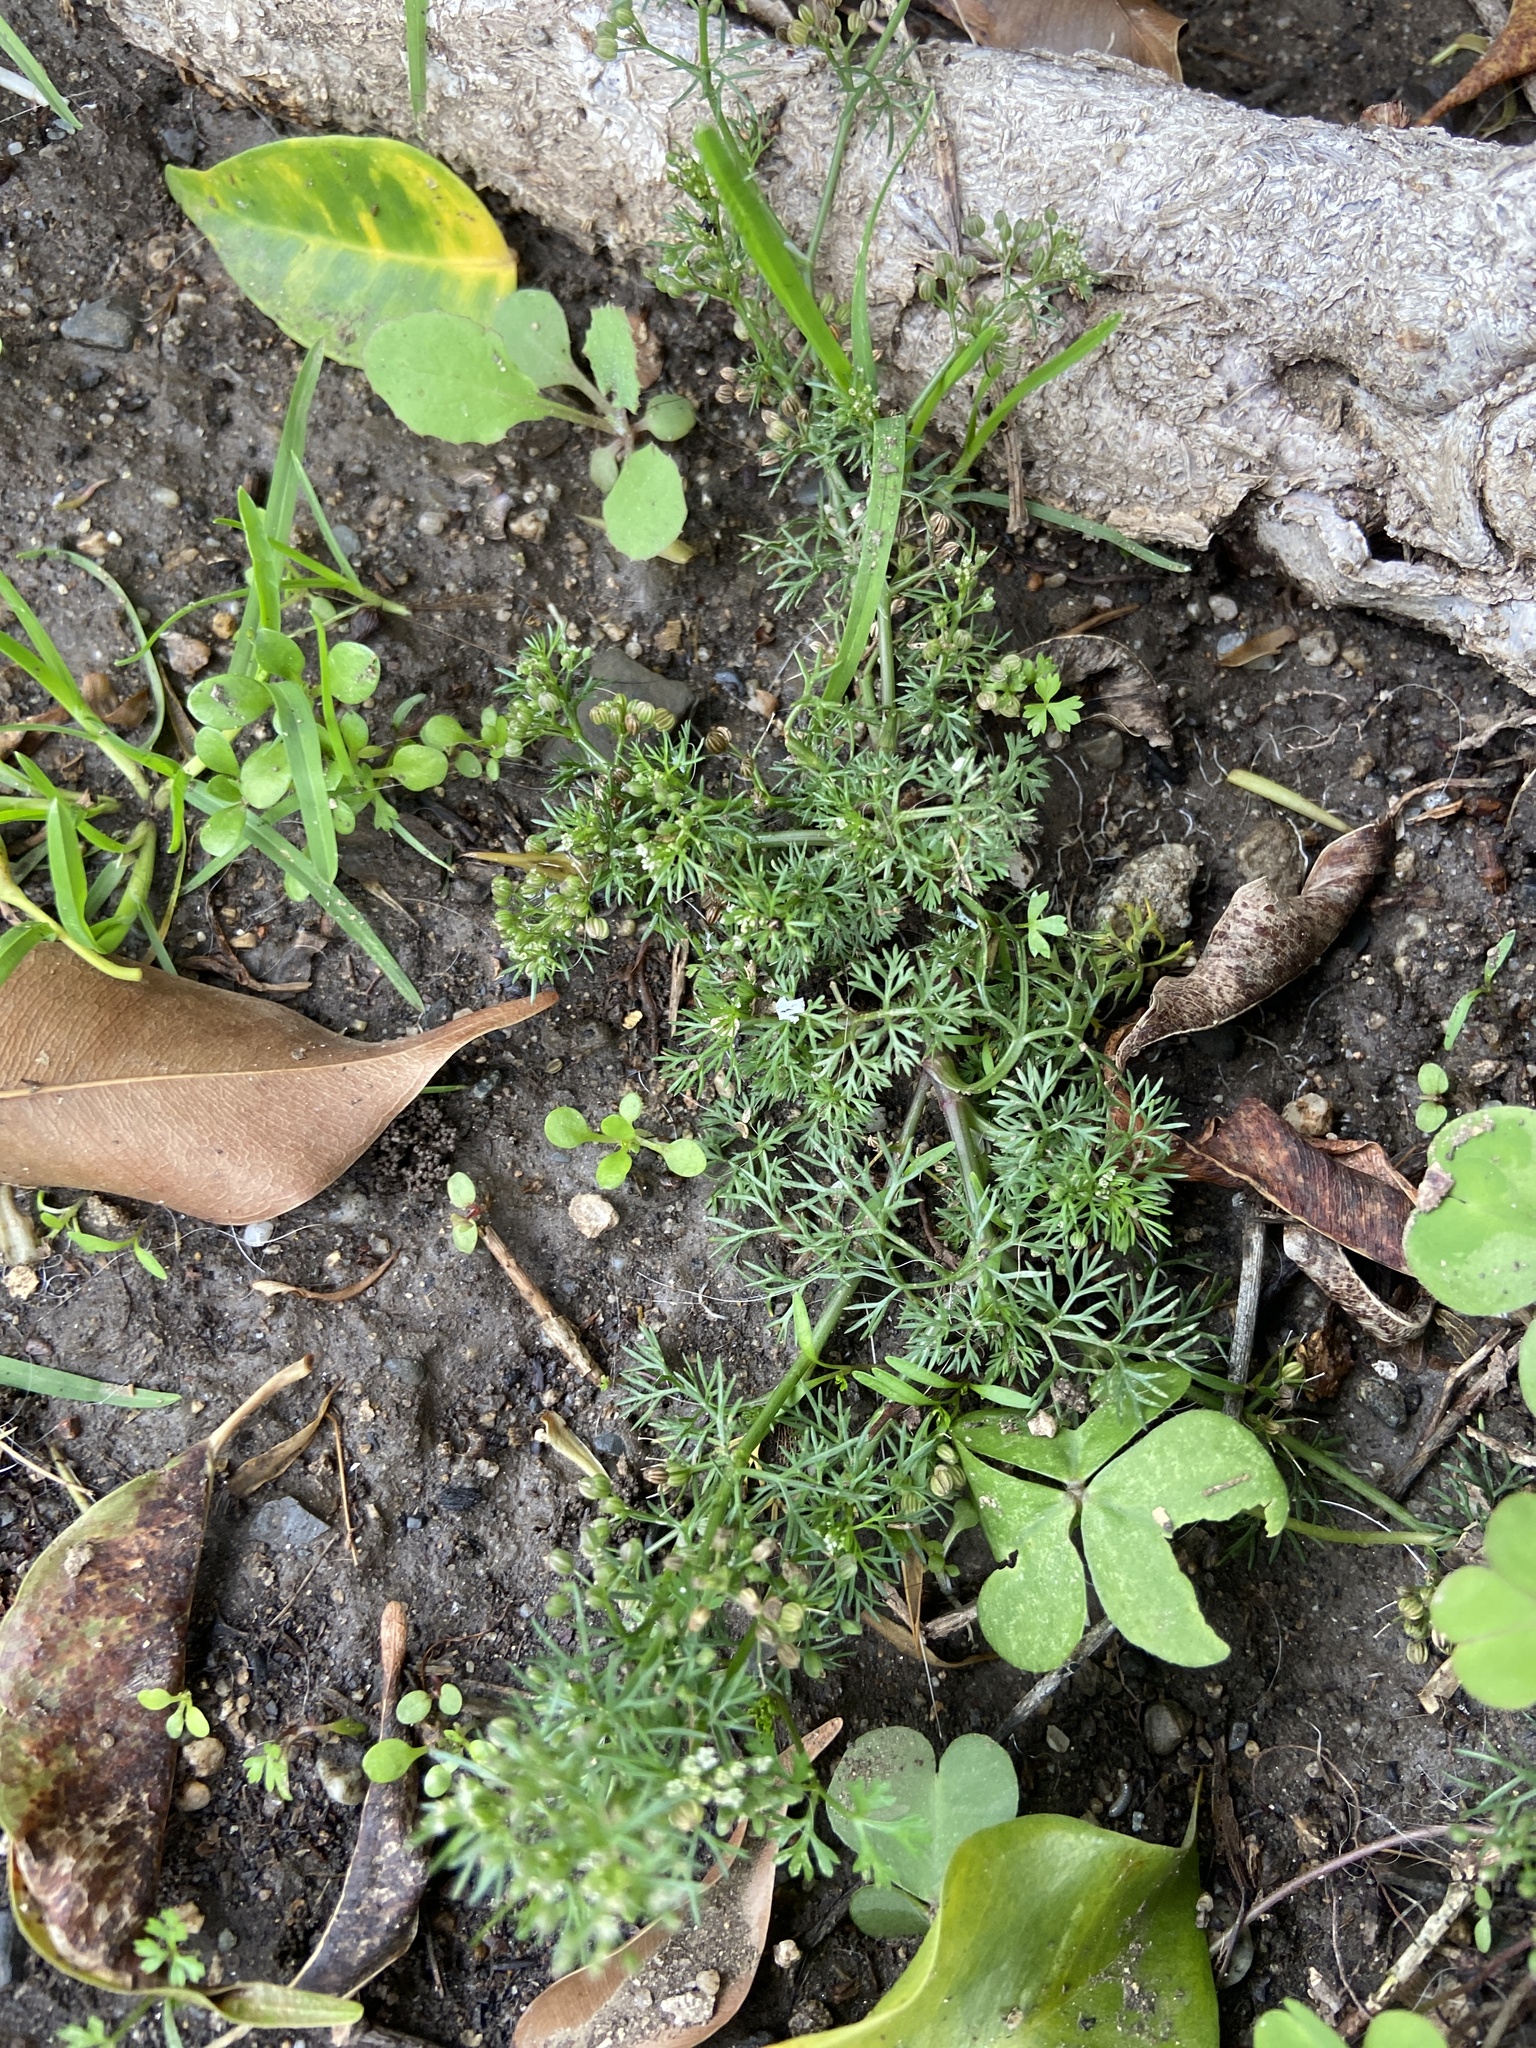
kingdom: Plantae
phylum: Tracheophyta
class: Magnoliopsida
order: Apiales
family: Apiaceae
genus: Cyclospermum
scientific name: Cyclospermum leptophyllum
